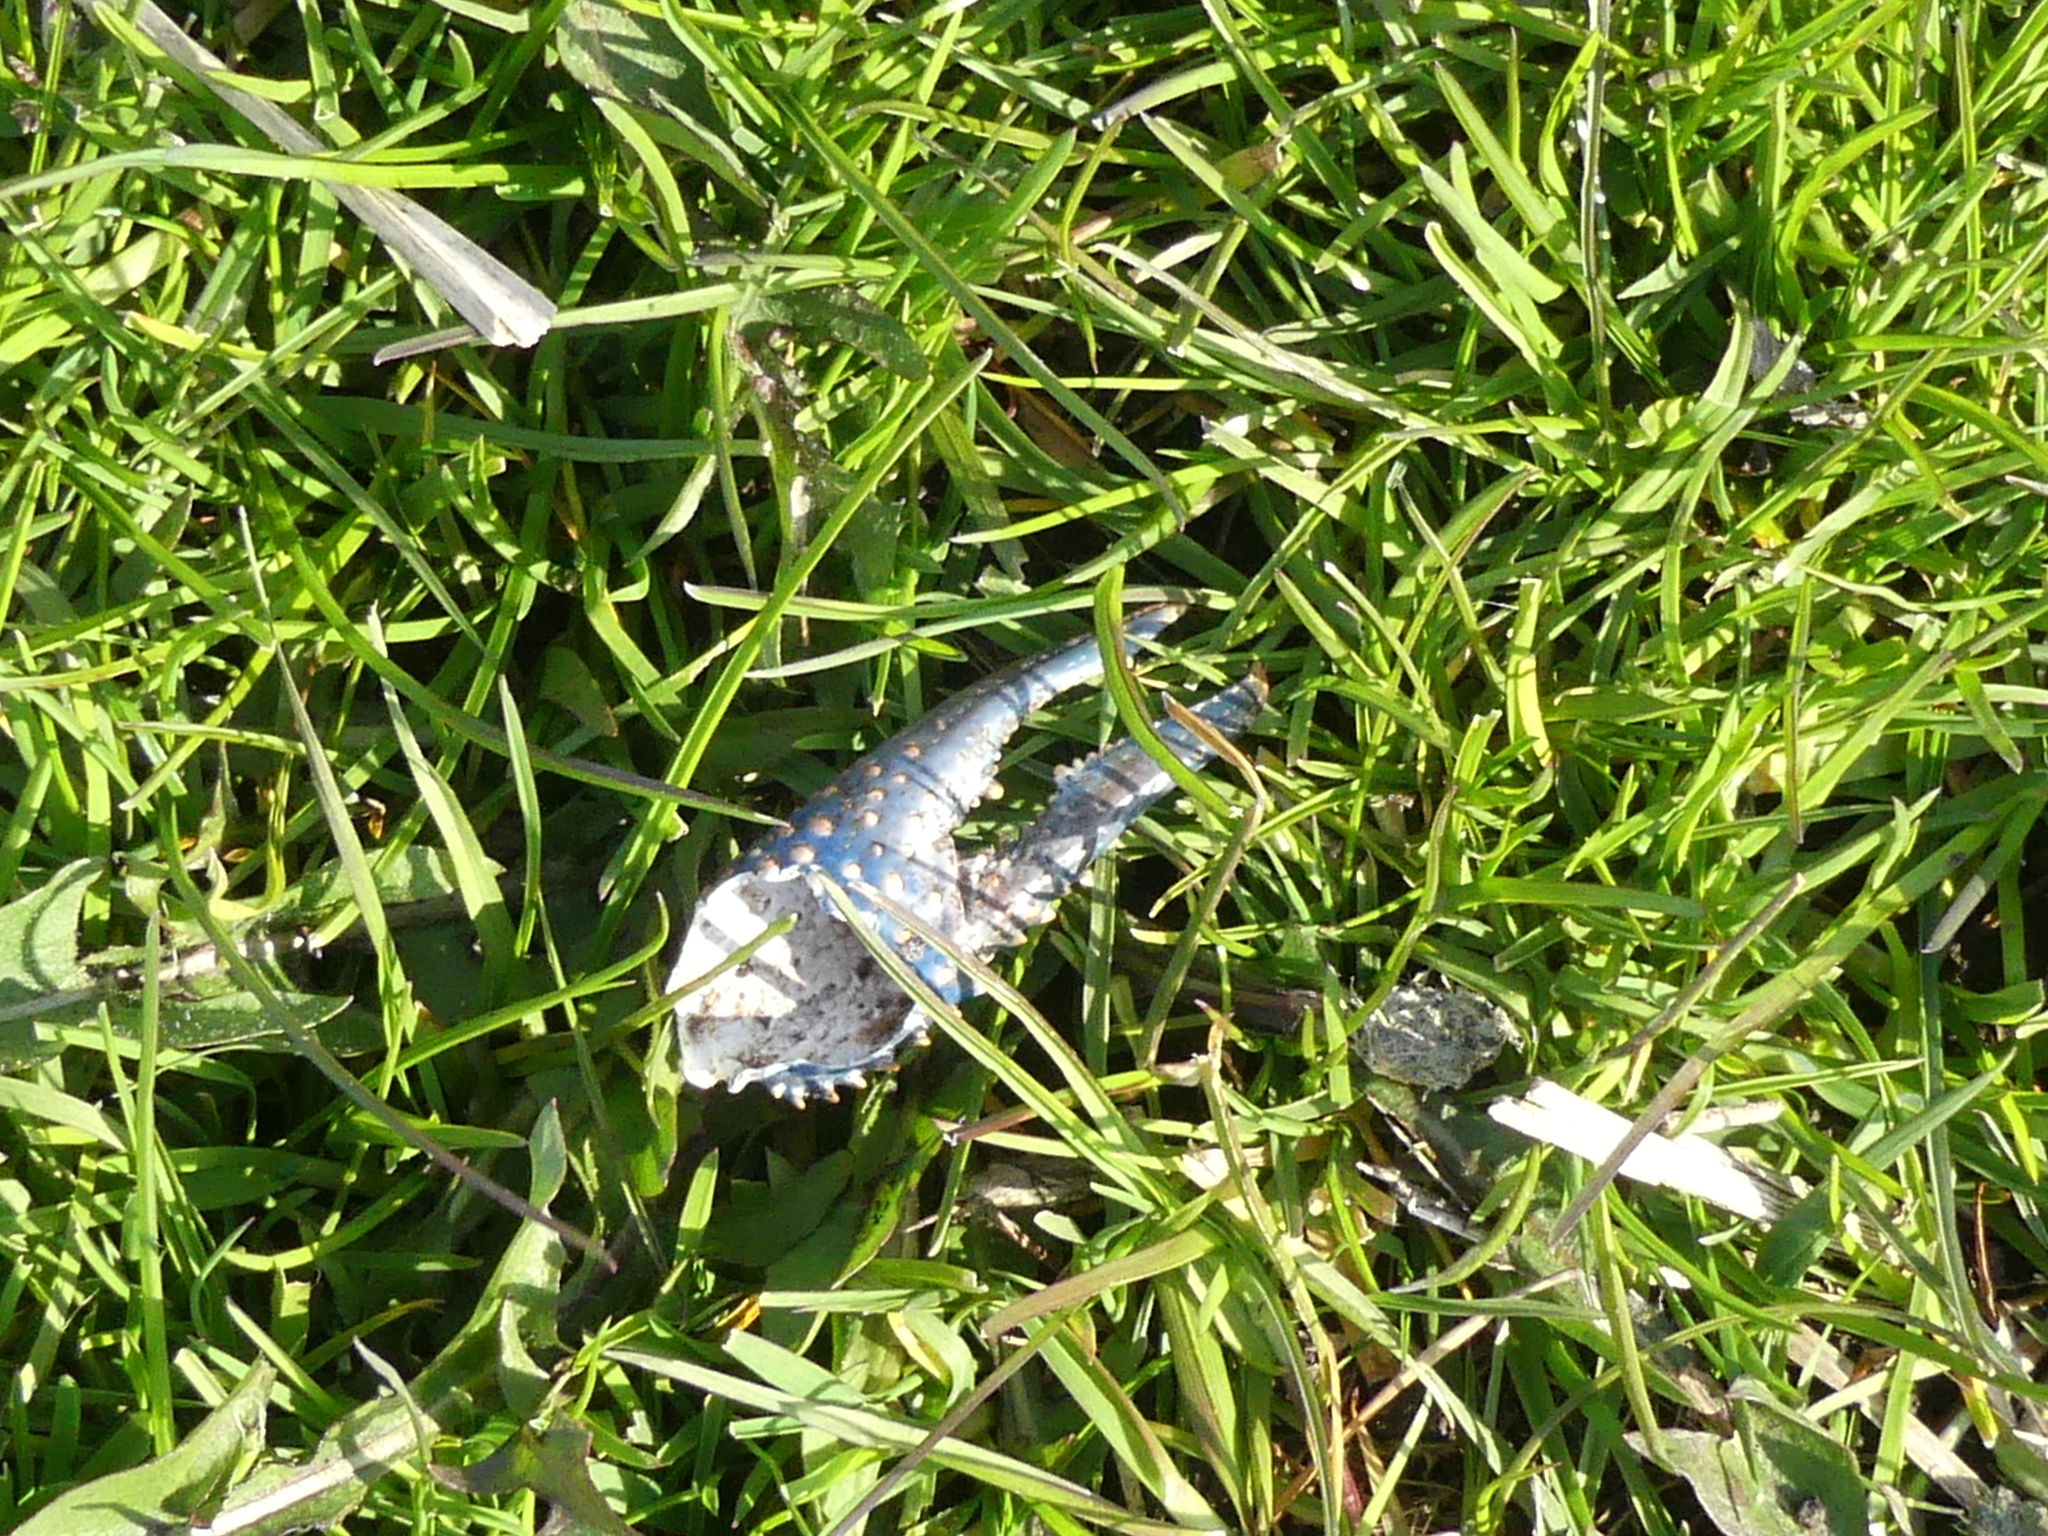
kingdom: Animalia
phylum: Arthropoda
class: Malacostraca
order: Decapoda
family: Cambaridae
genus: Procambarus
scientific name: Procambarus clarkii
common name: Red swamp crayfish
